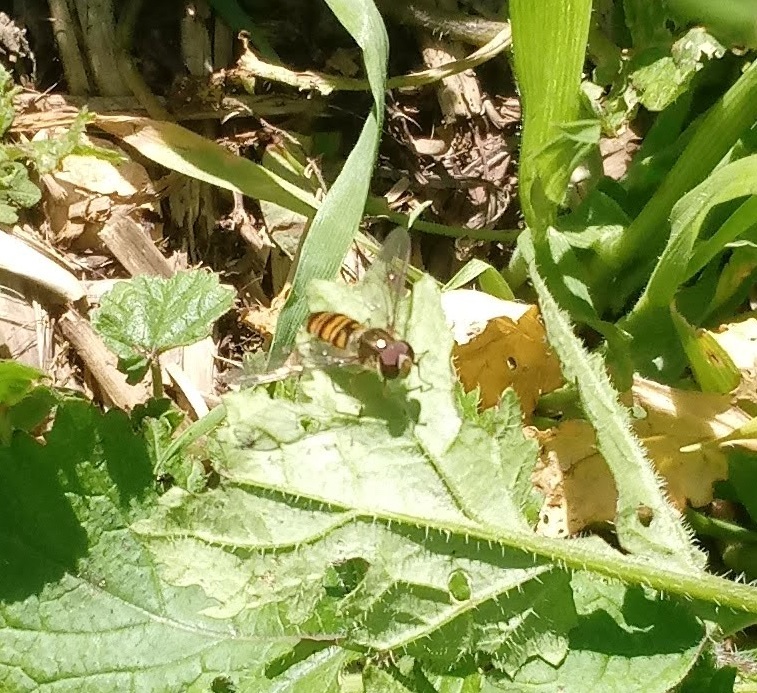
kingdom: Animalia
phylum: Arthropoda
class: Insecta
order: Diptera
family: Syrphidae
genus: Episyrphus
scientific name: Episyrphus balteatus
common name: Marmalade hoverfly
